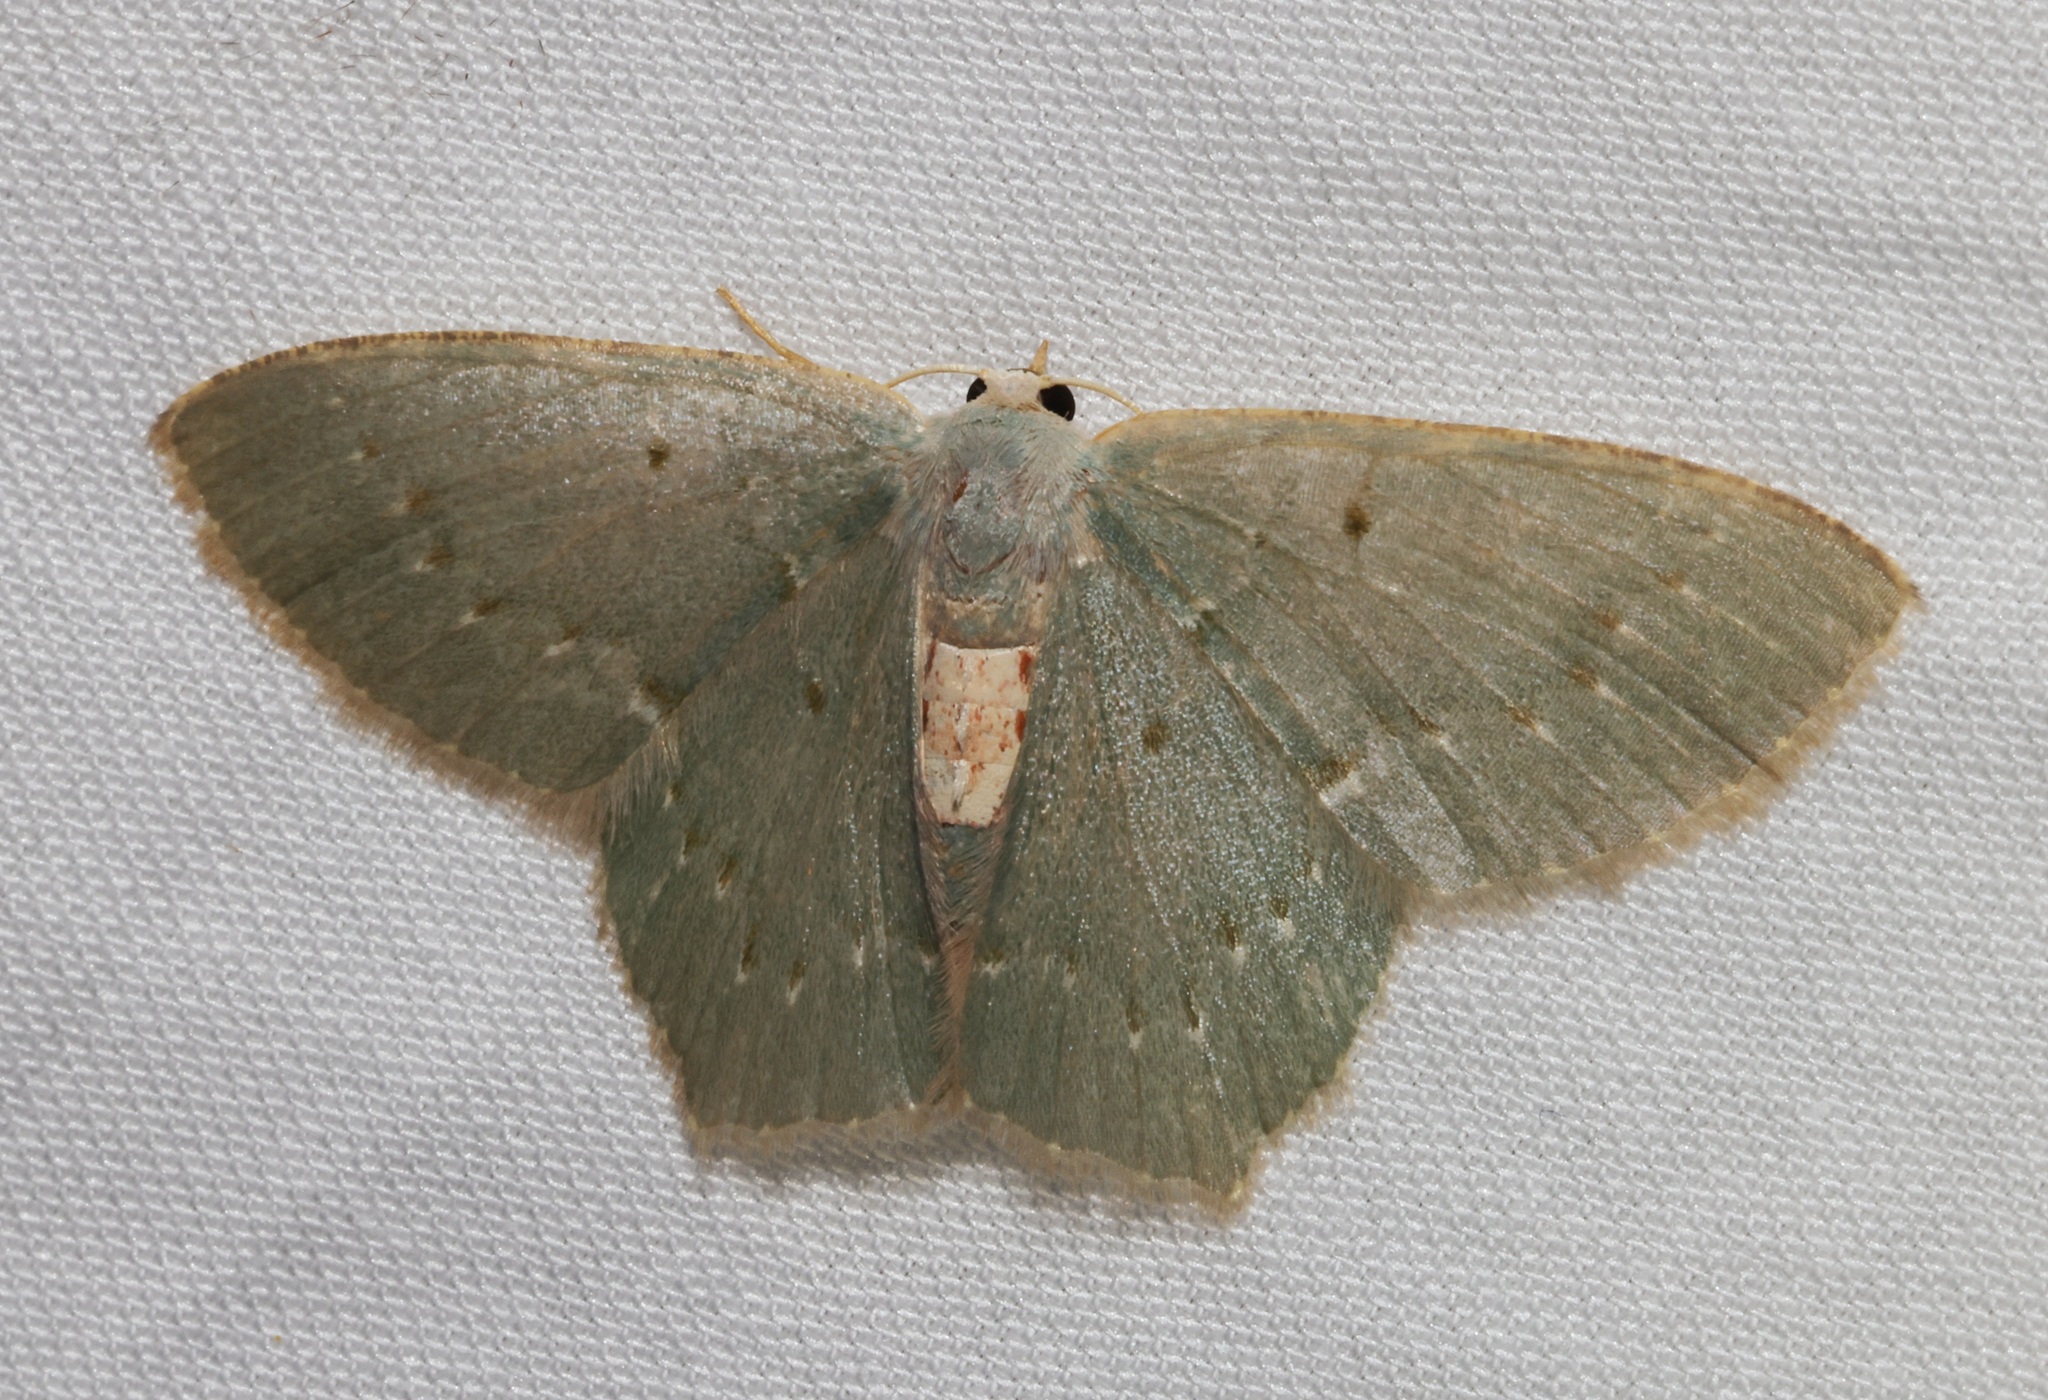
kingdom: Animalia
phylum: Arthropoda
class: Insecta
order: Lepidoptera
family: Geometridae
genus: Chlorissa
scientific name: Chlorissa
